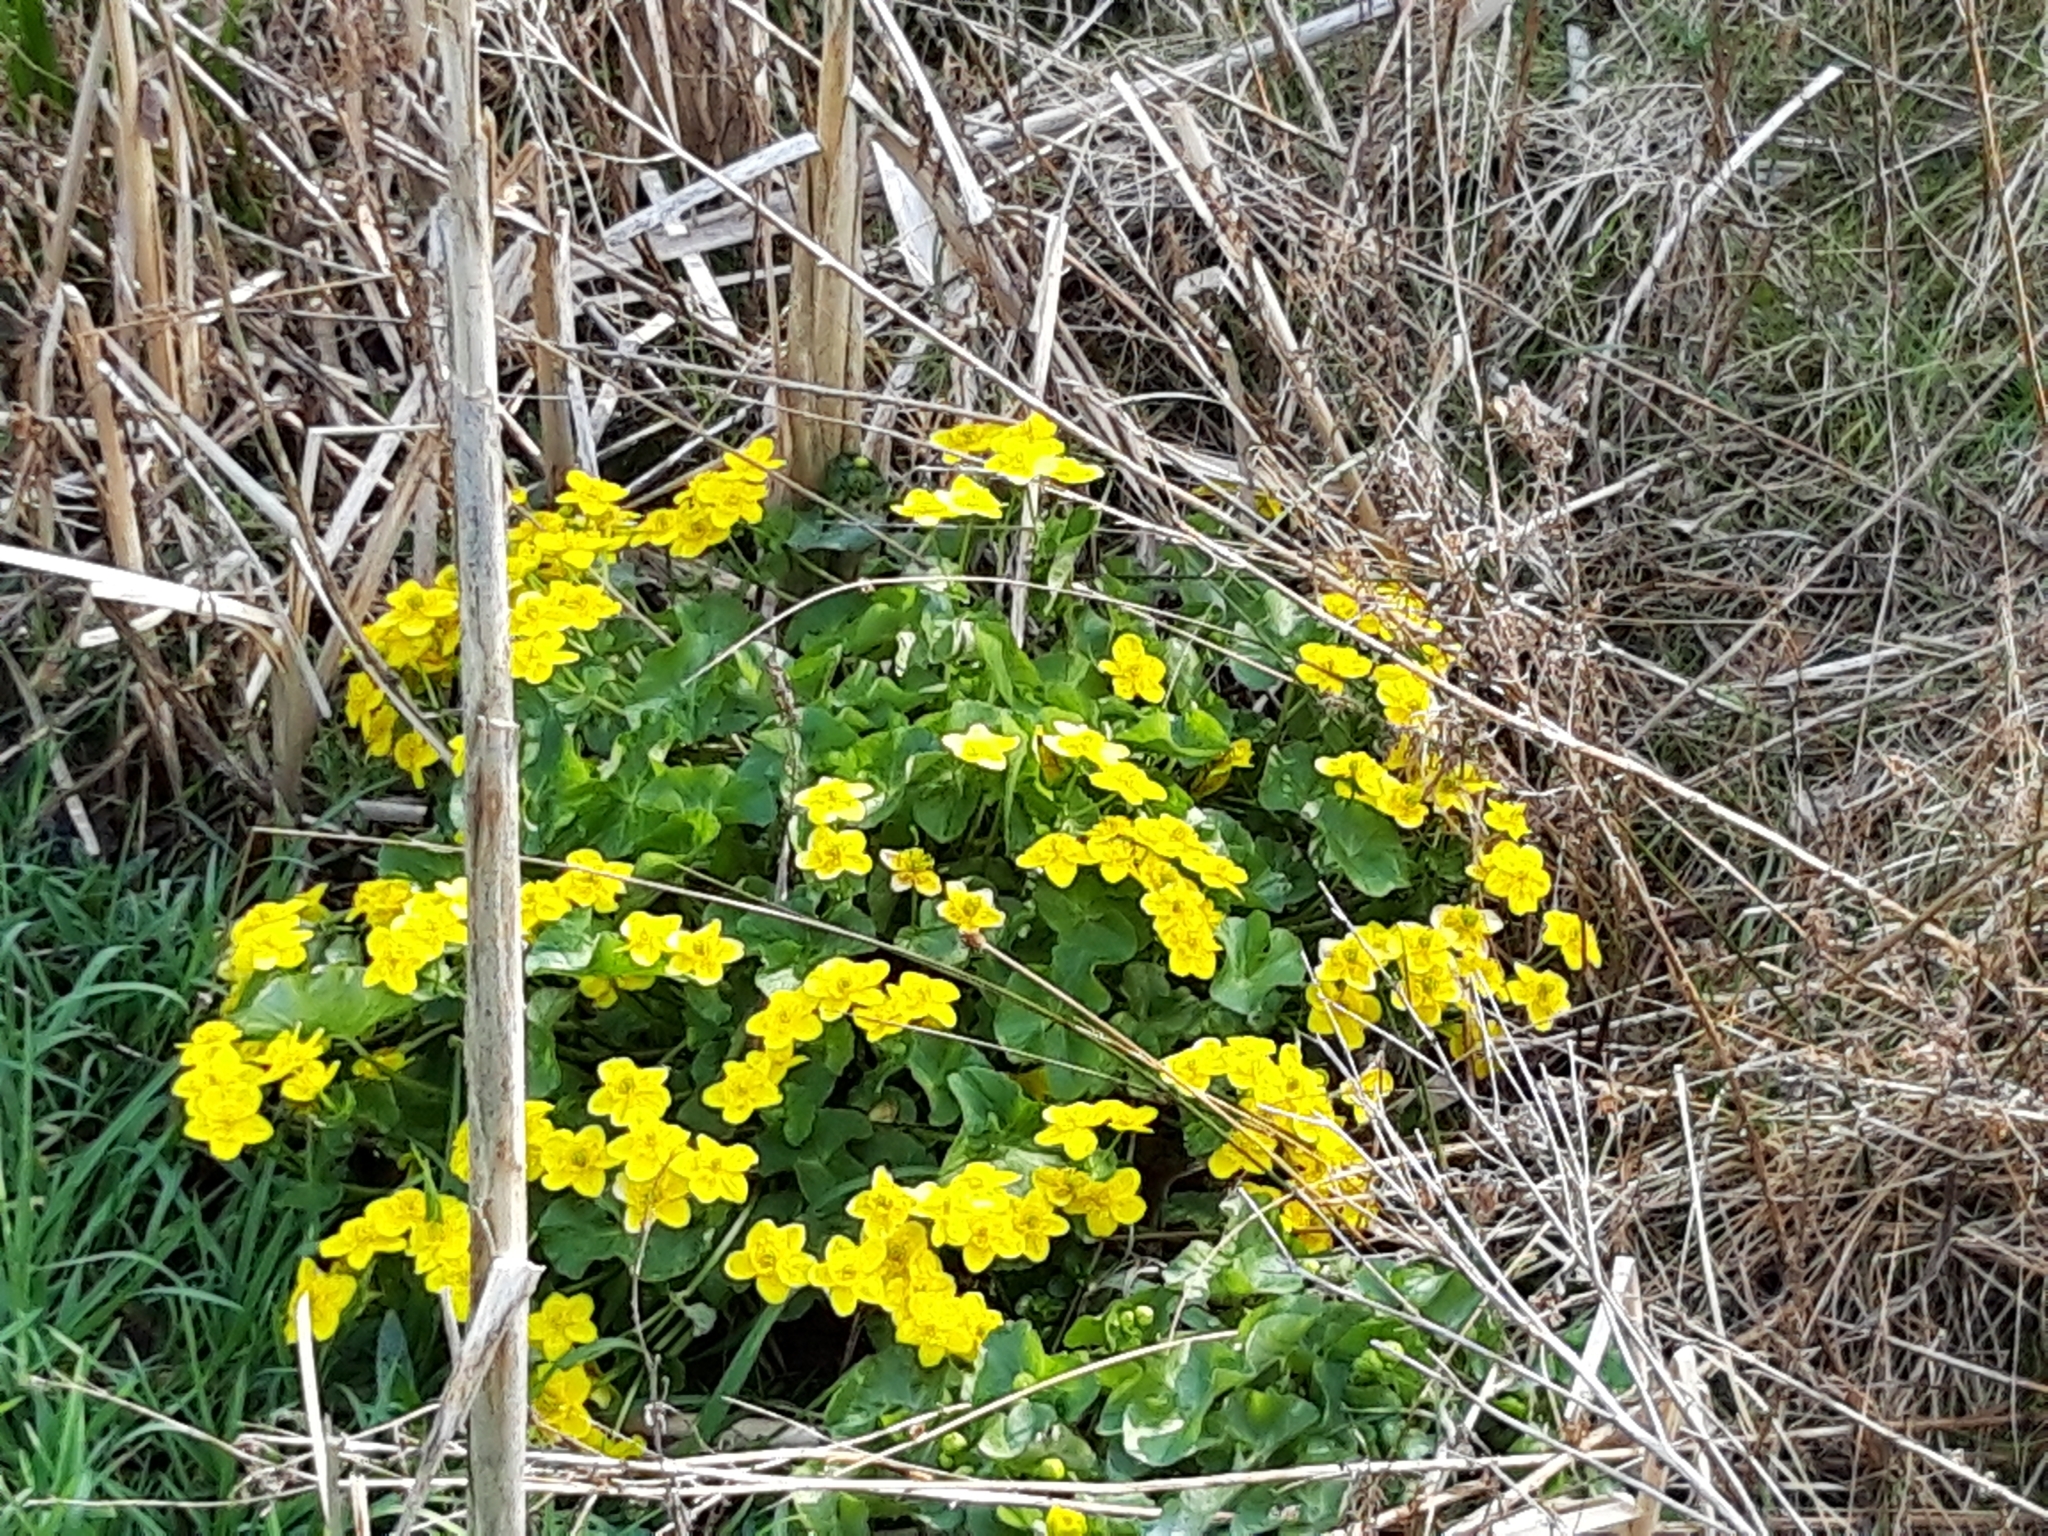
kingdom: Plantae
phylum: Tracheophyta
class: Magnoliopsida
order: Ranunculales
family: Ranunculaceae
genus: Caltha
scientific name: Caltha palustris
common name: Marsh marigold
